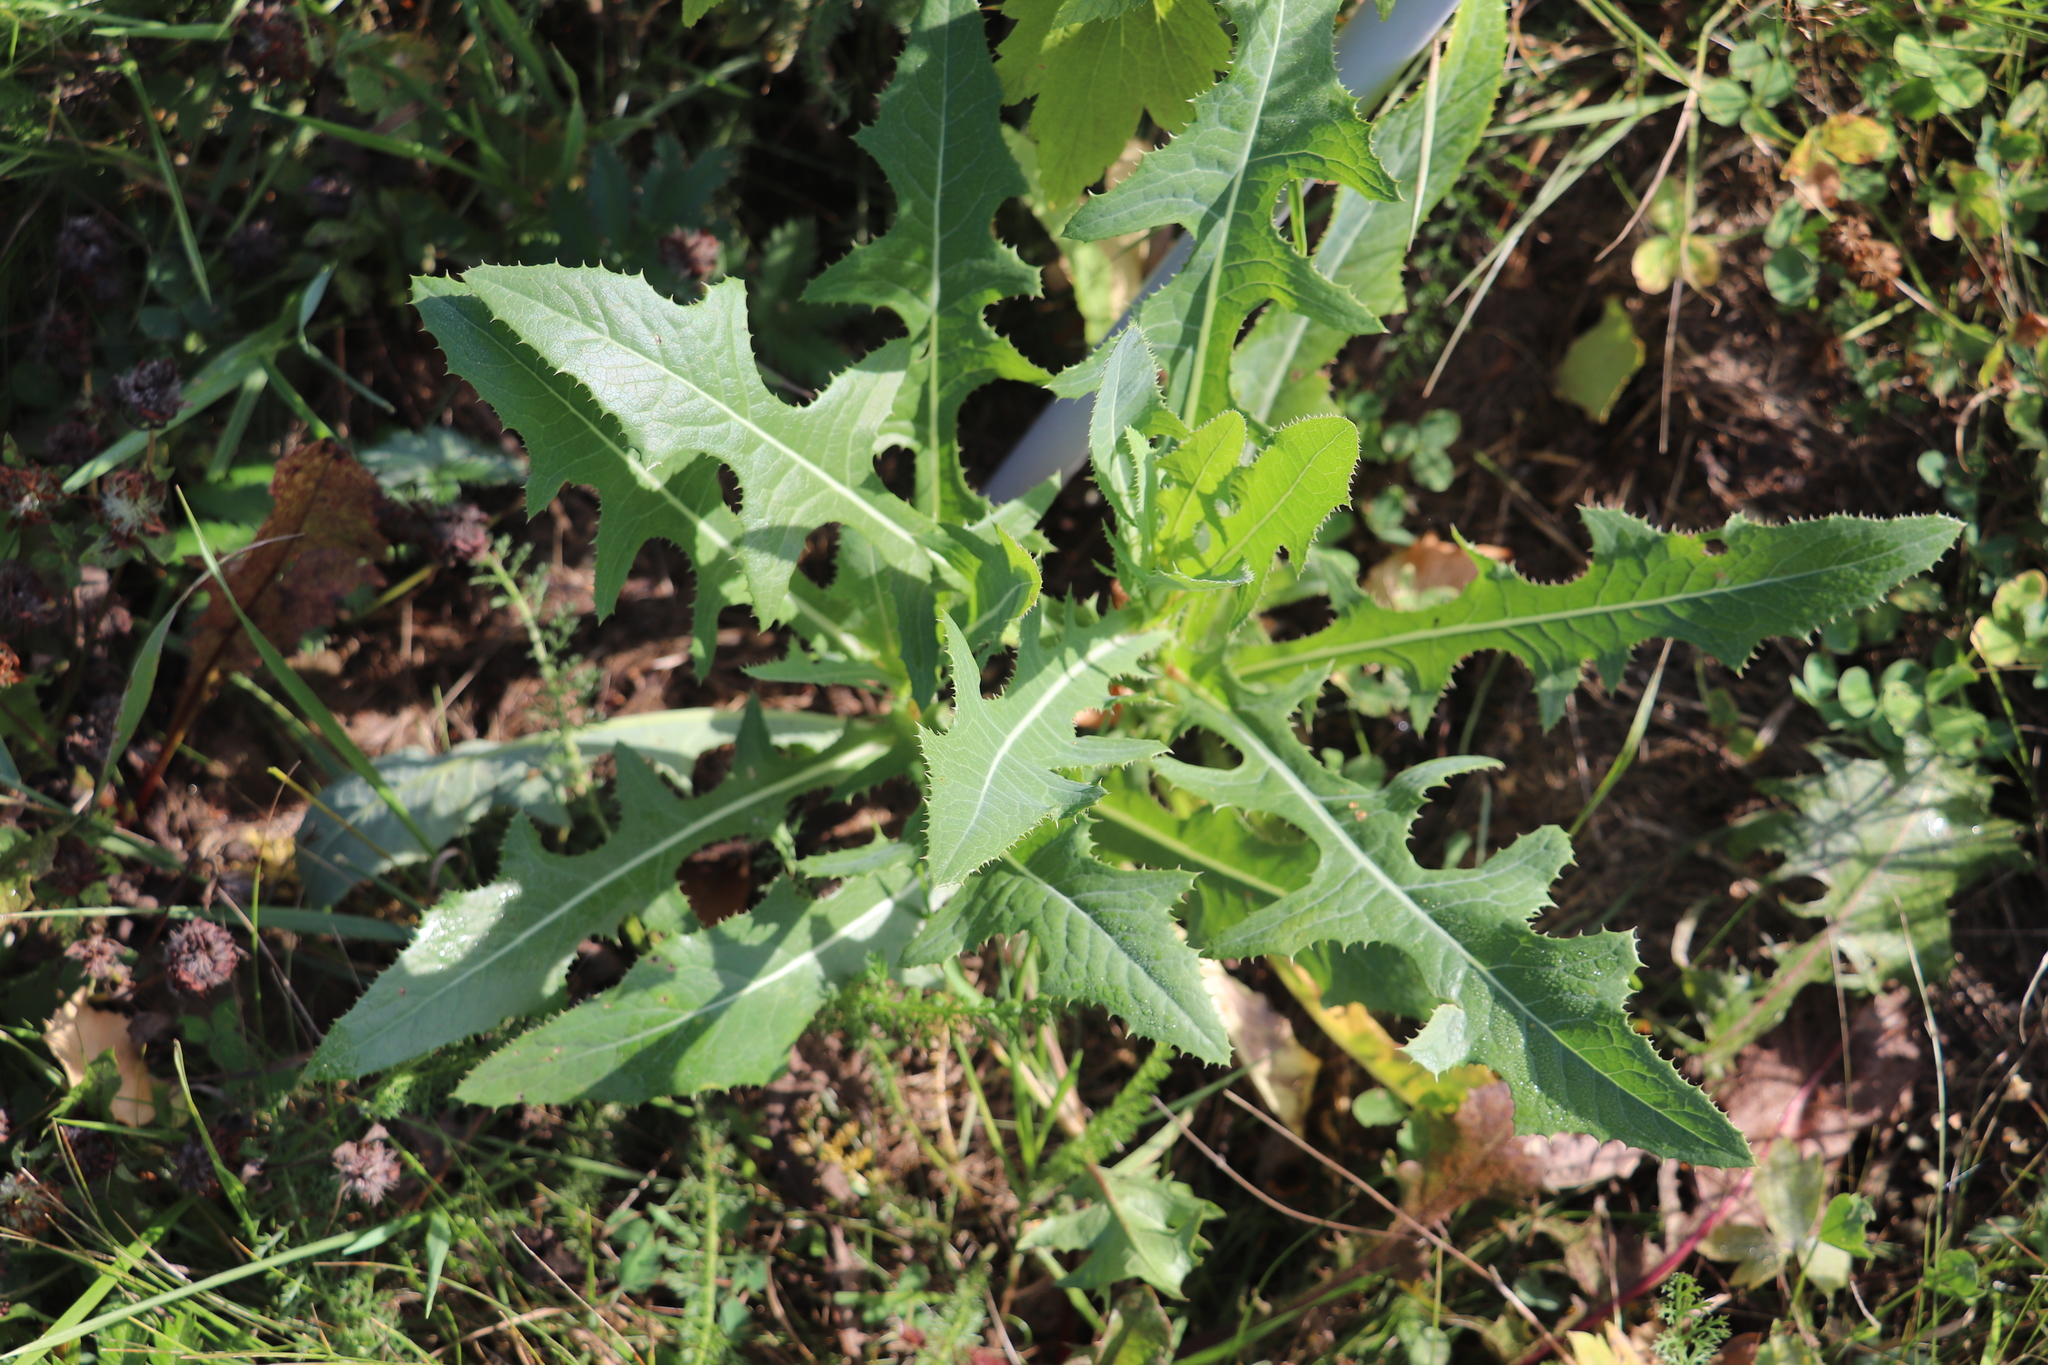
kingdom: Plantae
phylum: Tracheophyta
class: Magnoliopsida
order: Asterales
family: Asteraceae
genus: Sonchus
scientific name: Sonchus arvensis
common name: Perennial sow-thistle
